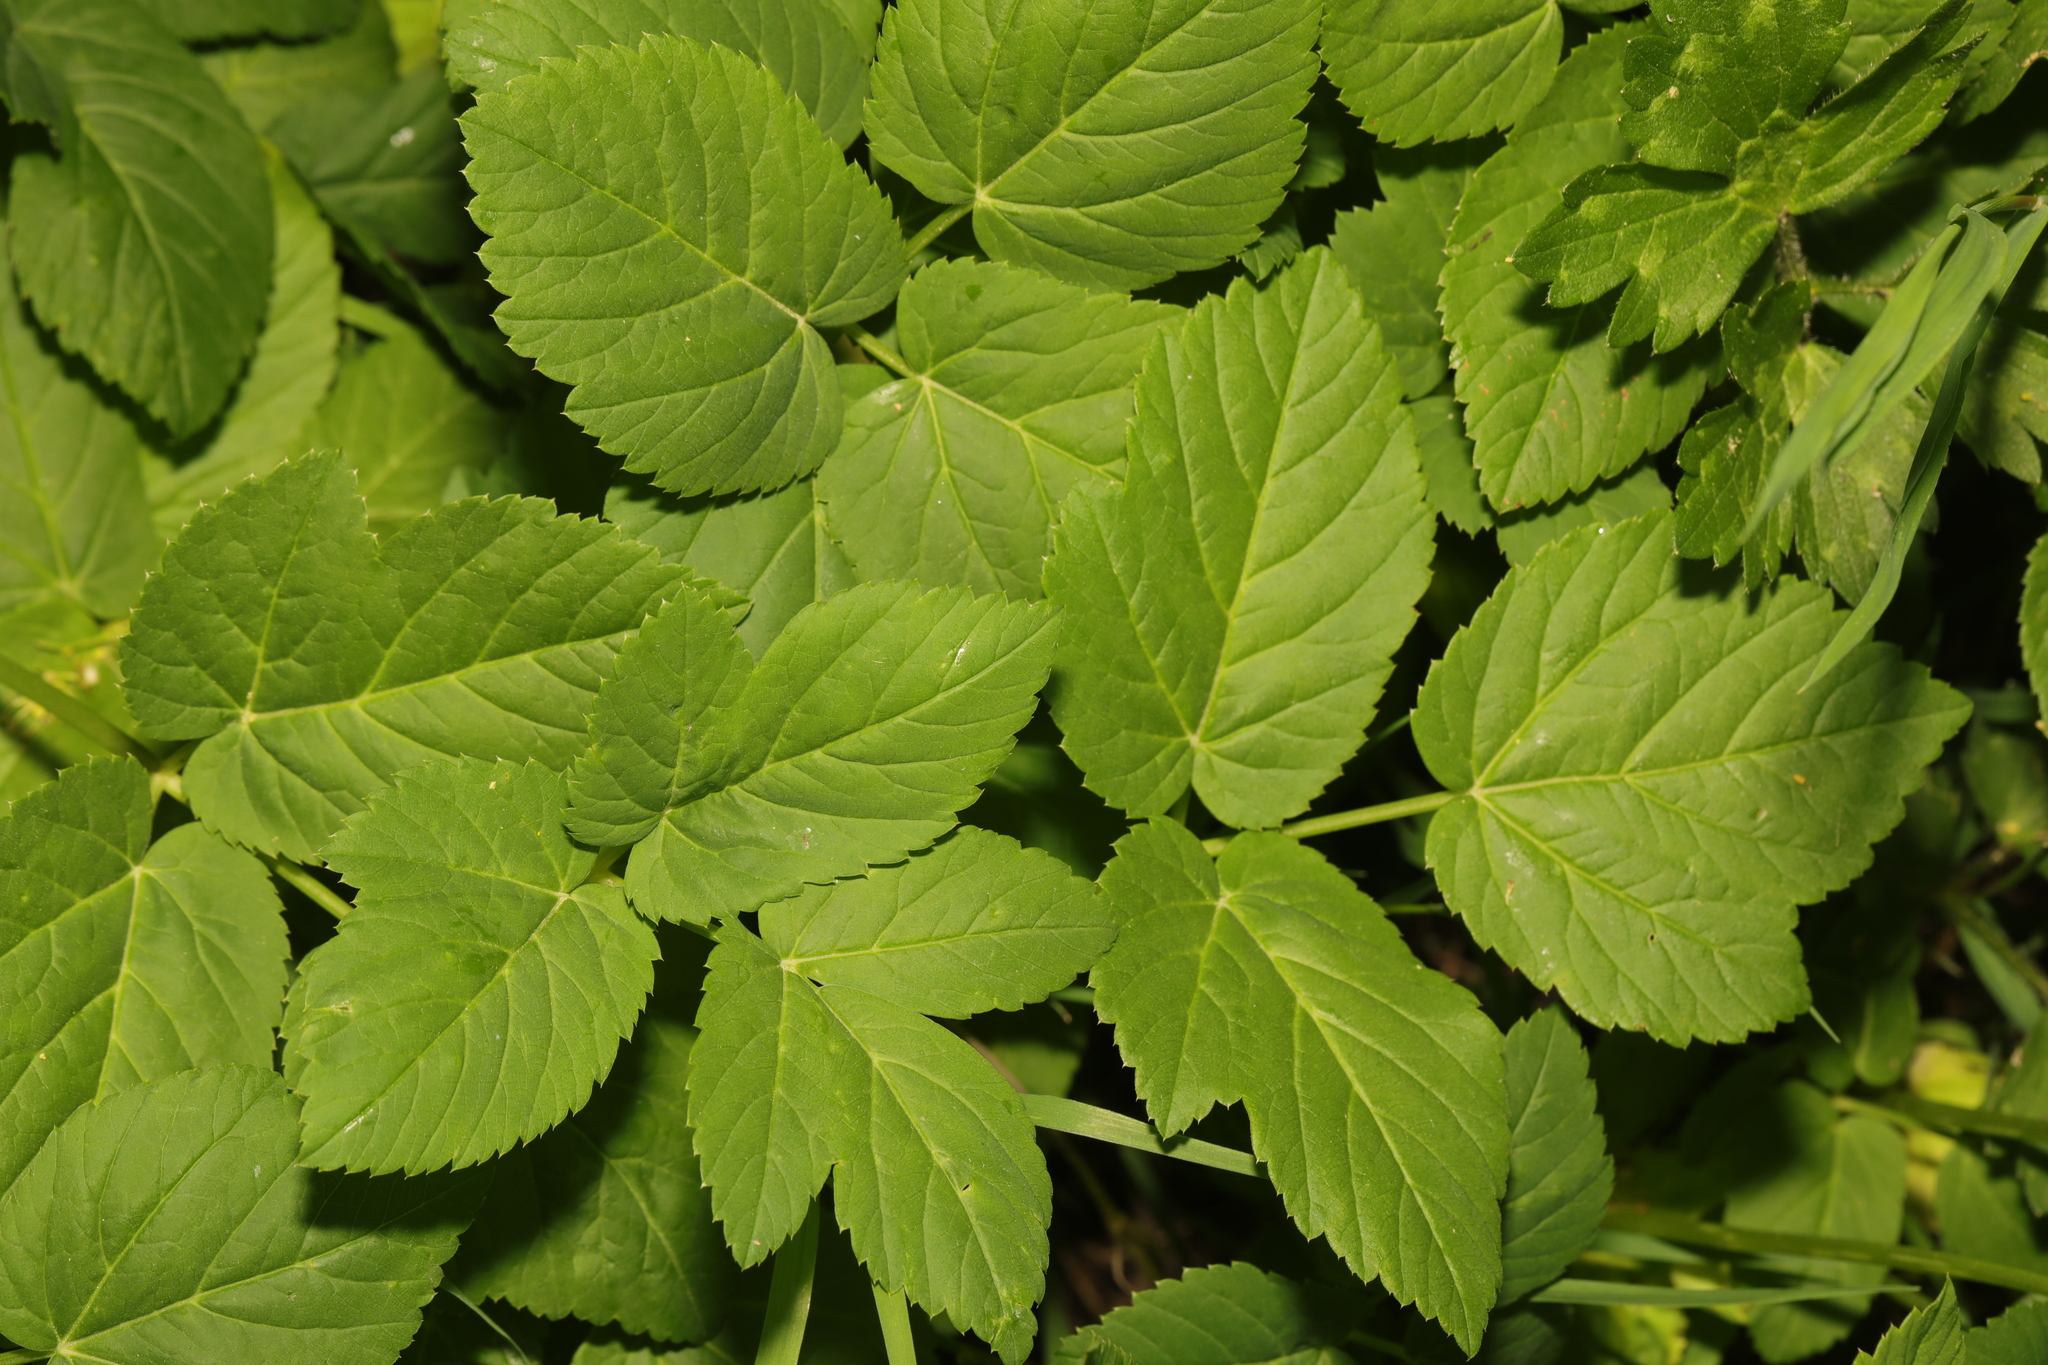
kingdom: Plantae
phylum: Tracheophyta
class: Magnoliopsida
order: Apiales
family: Apiaceae
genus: Aegopodium
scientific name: Aegopodium podagraria
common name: Ground-elder
